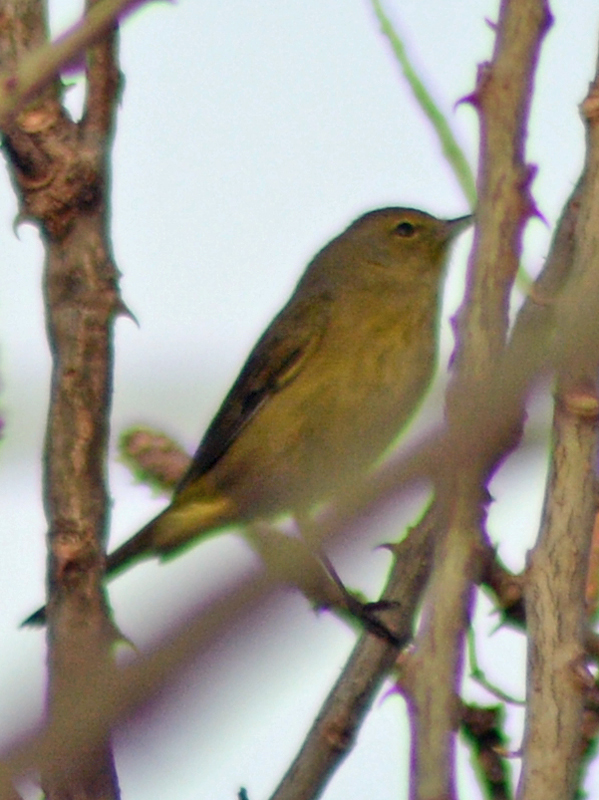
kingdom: Animalia
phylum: Chordata
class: Aves
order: Passeriformes
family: Parulidae
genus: Leiothlypis
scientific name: Leiothlypis celata
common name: Orange-crowned warbler
